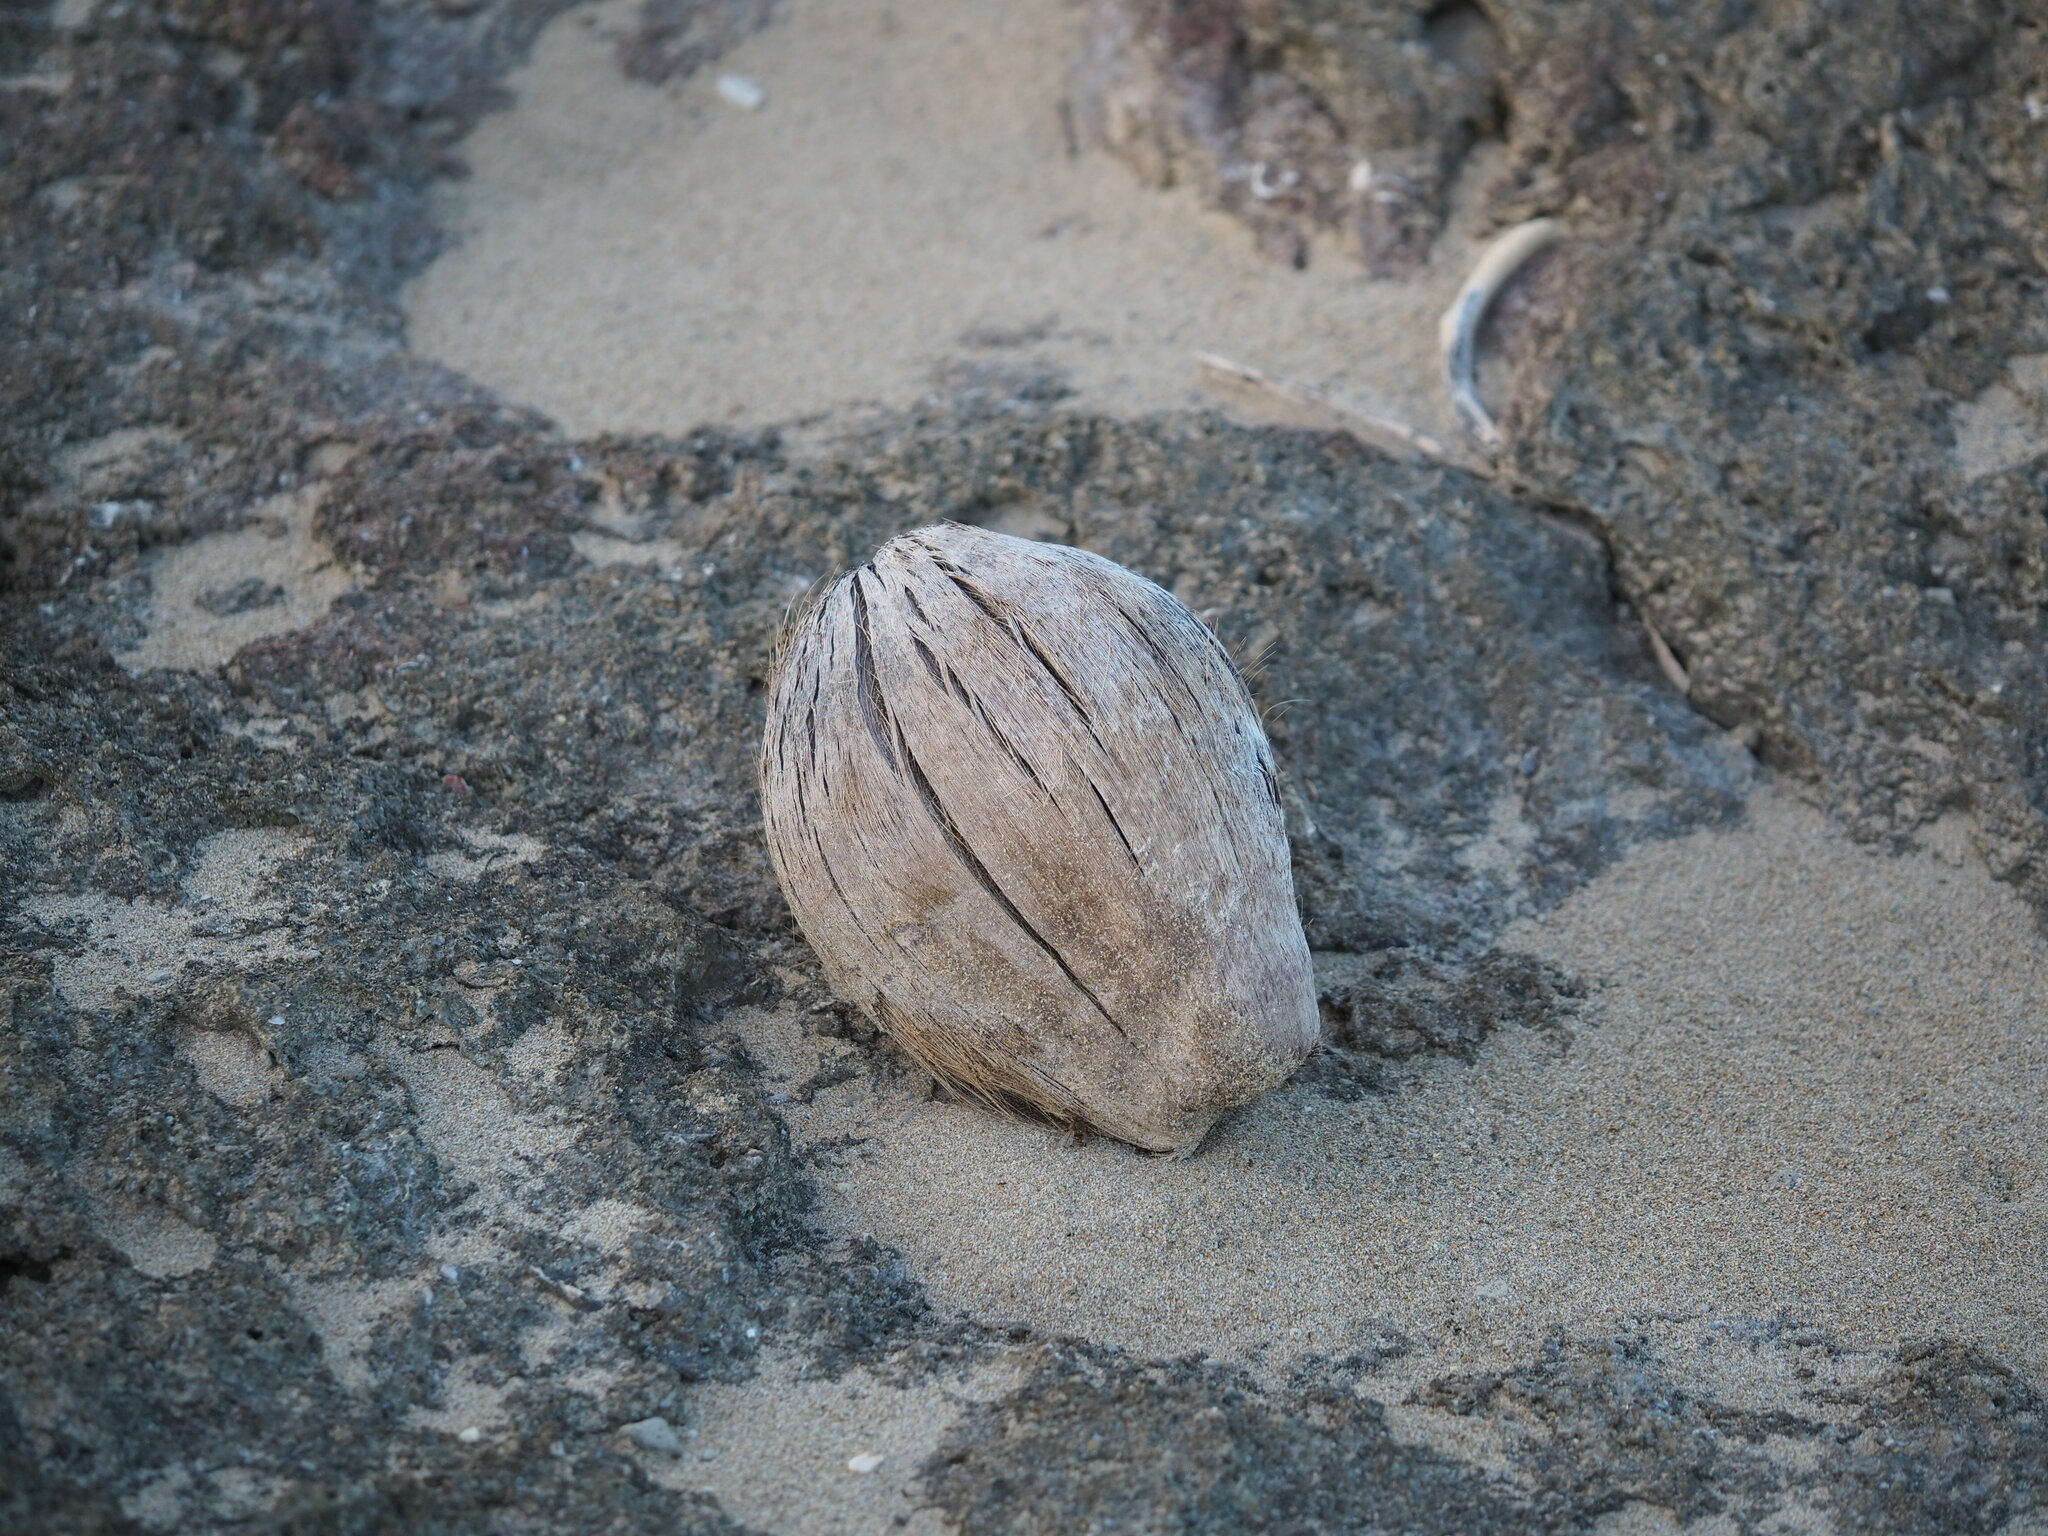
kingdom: Plantae
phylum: Tracheophyta
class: Liliopsida
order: Arecales
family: Arecaceae
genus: Cocos
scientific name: Cocos nucifera
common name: Coconut palm
